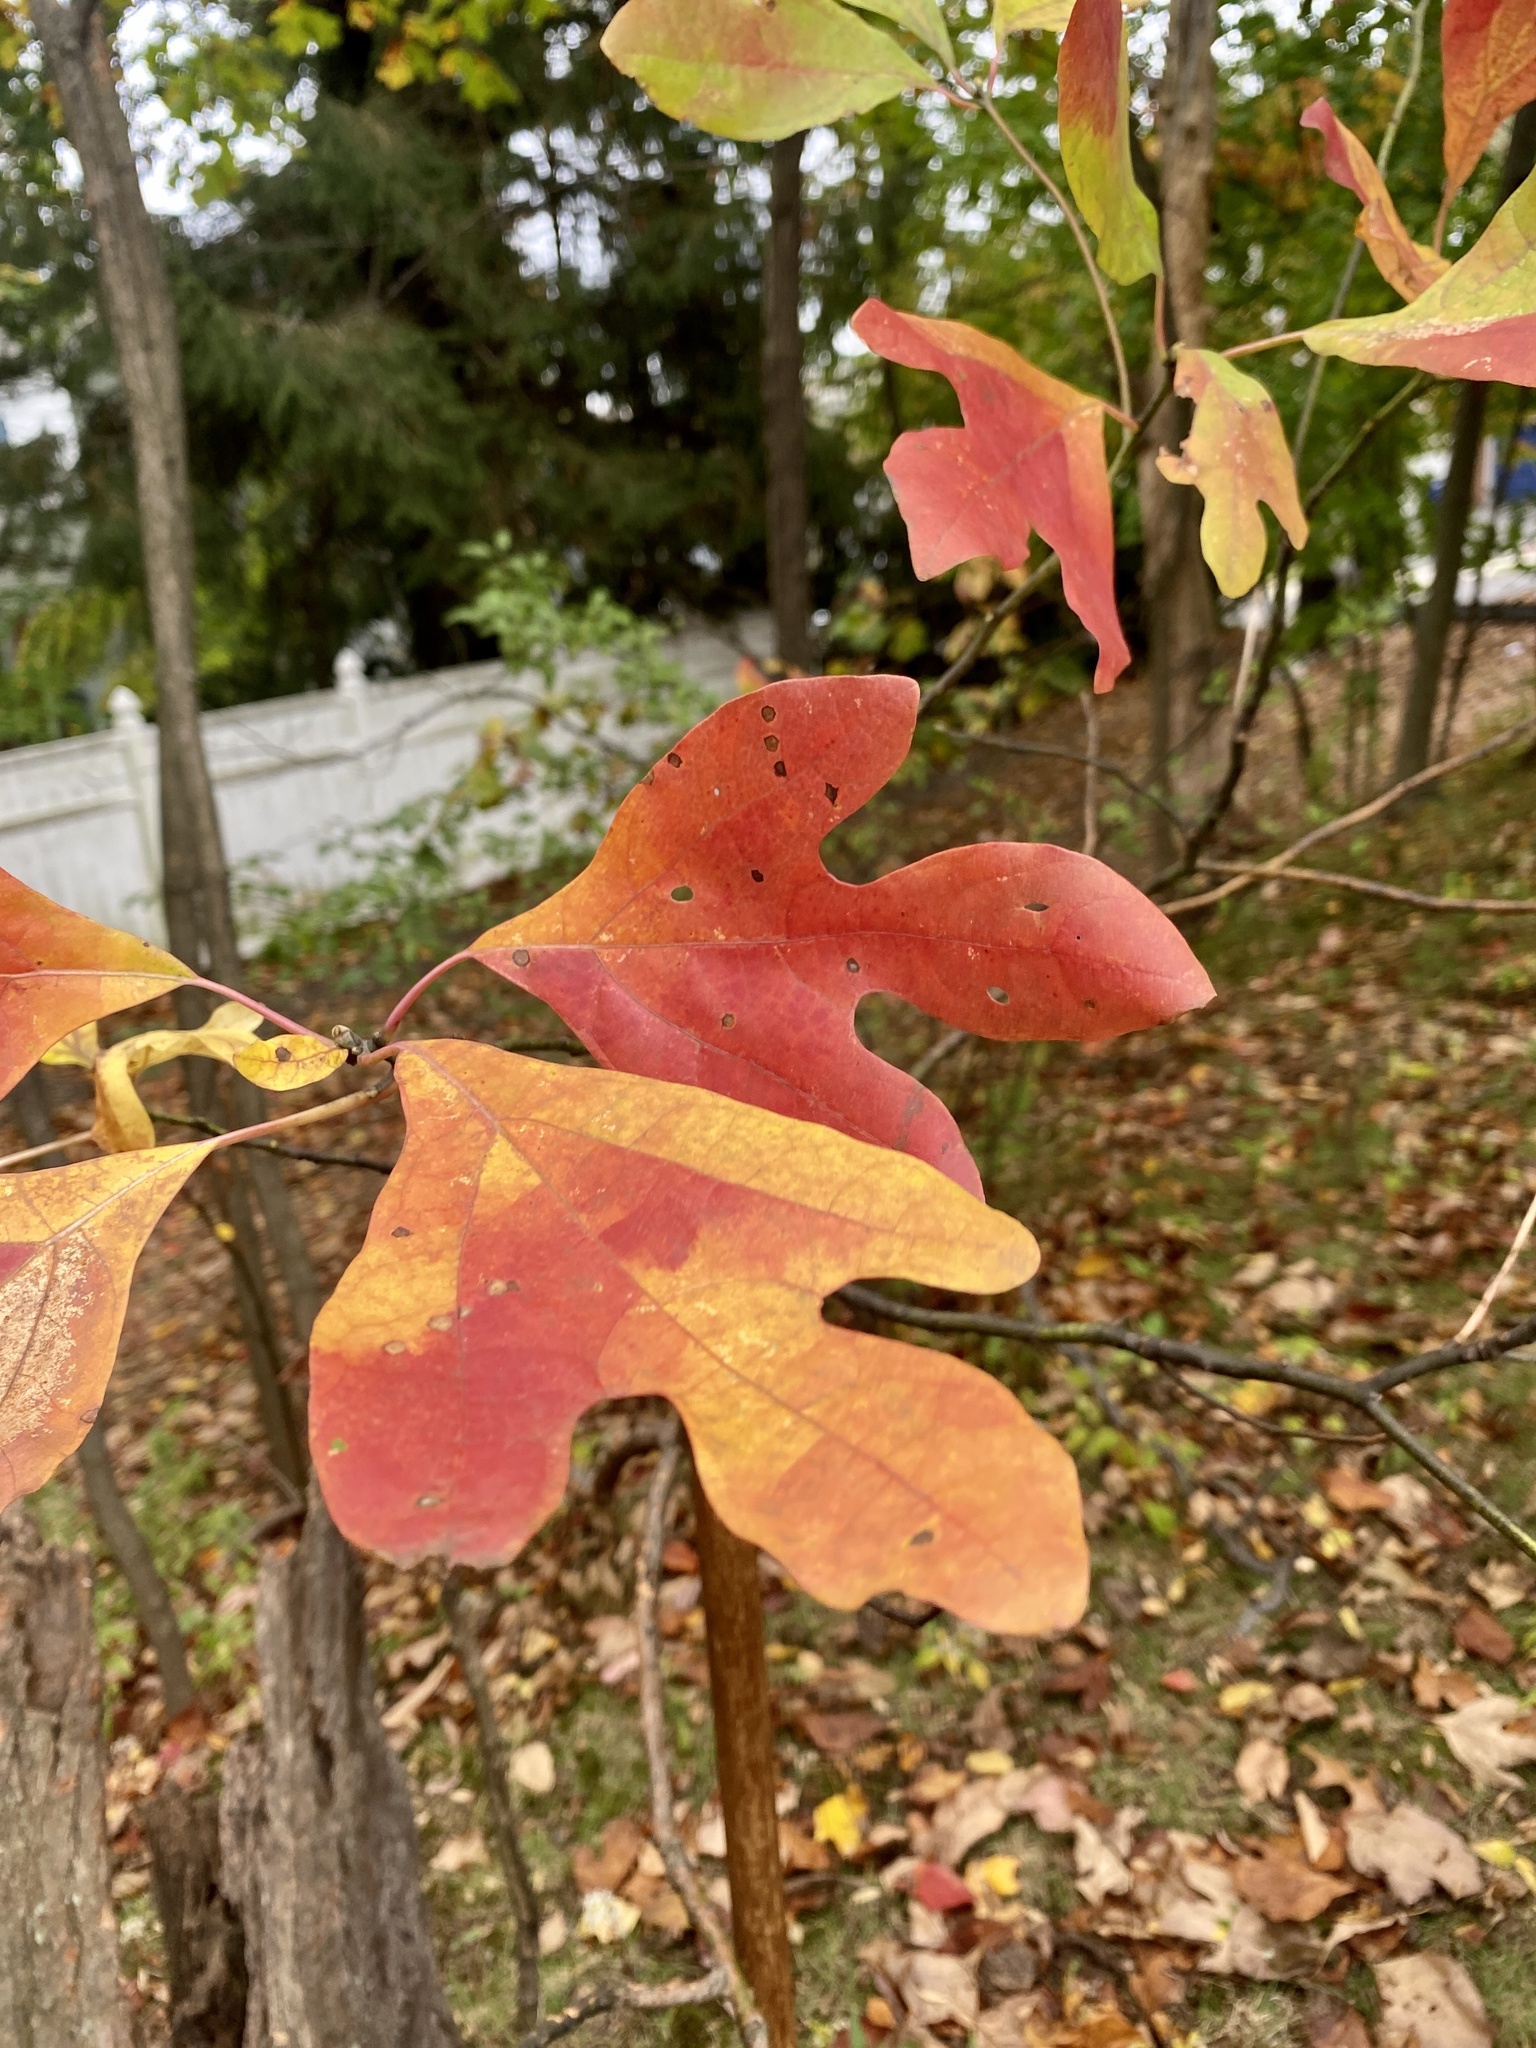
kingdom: Plantae
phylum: Tracheophyta
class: Magnoliopsida
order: Laurales
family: Lauraceae
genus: Sassafras
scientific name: Sassafras albidum
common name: Sassafras
